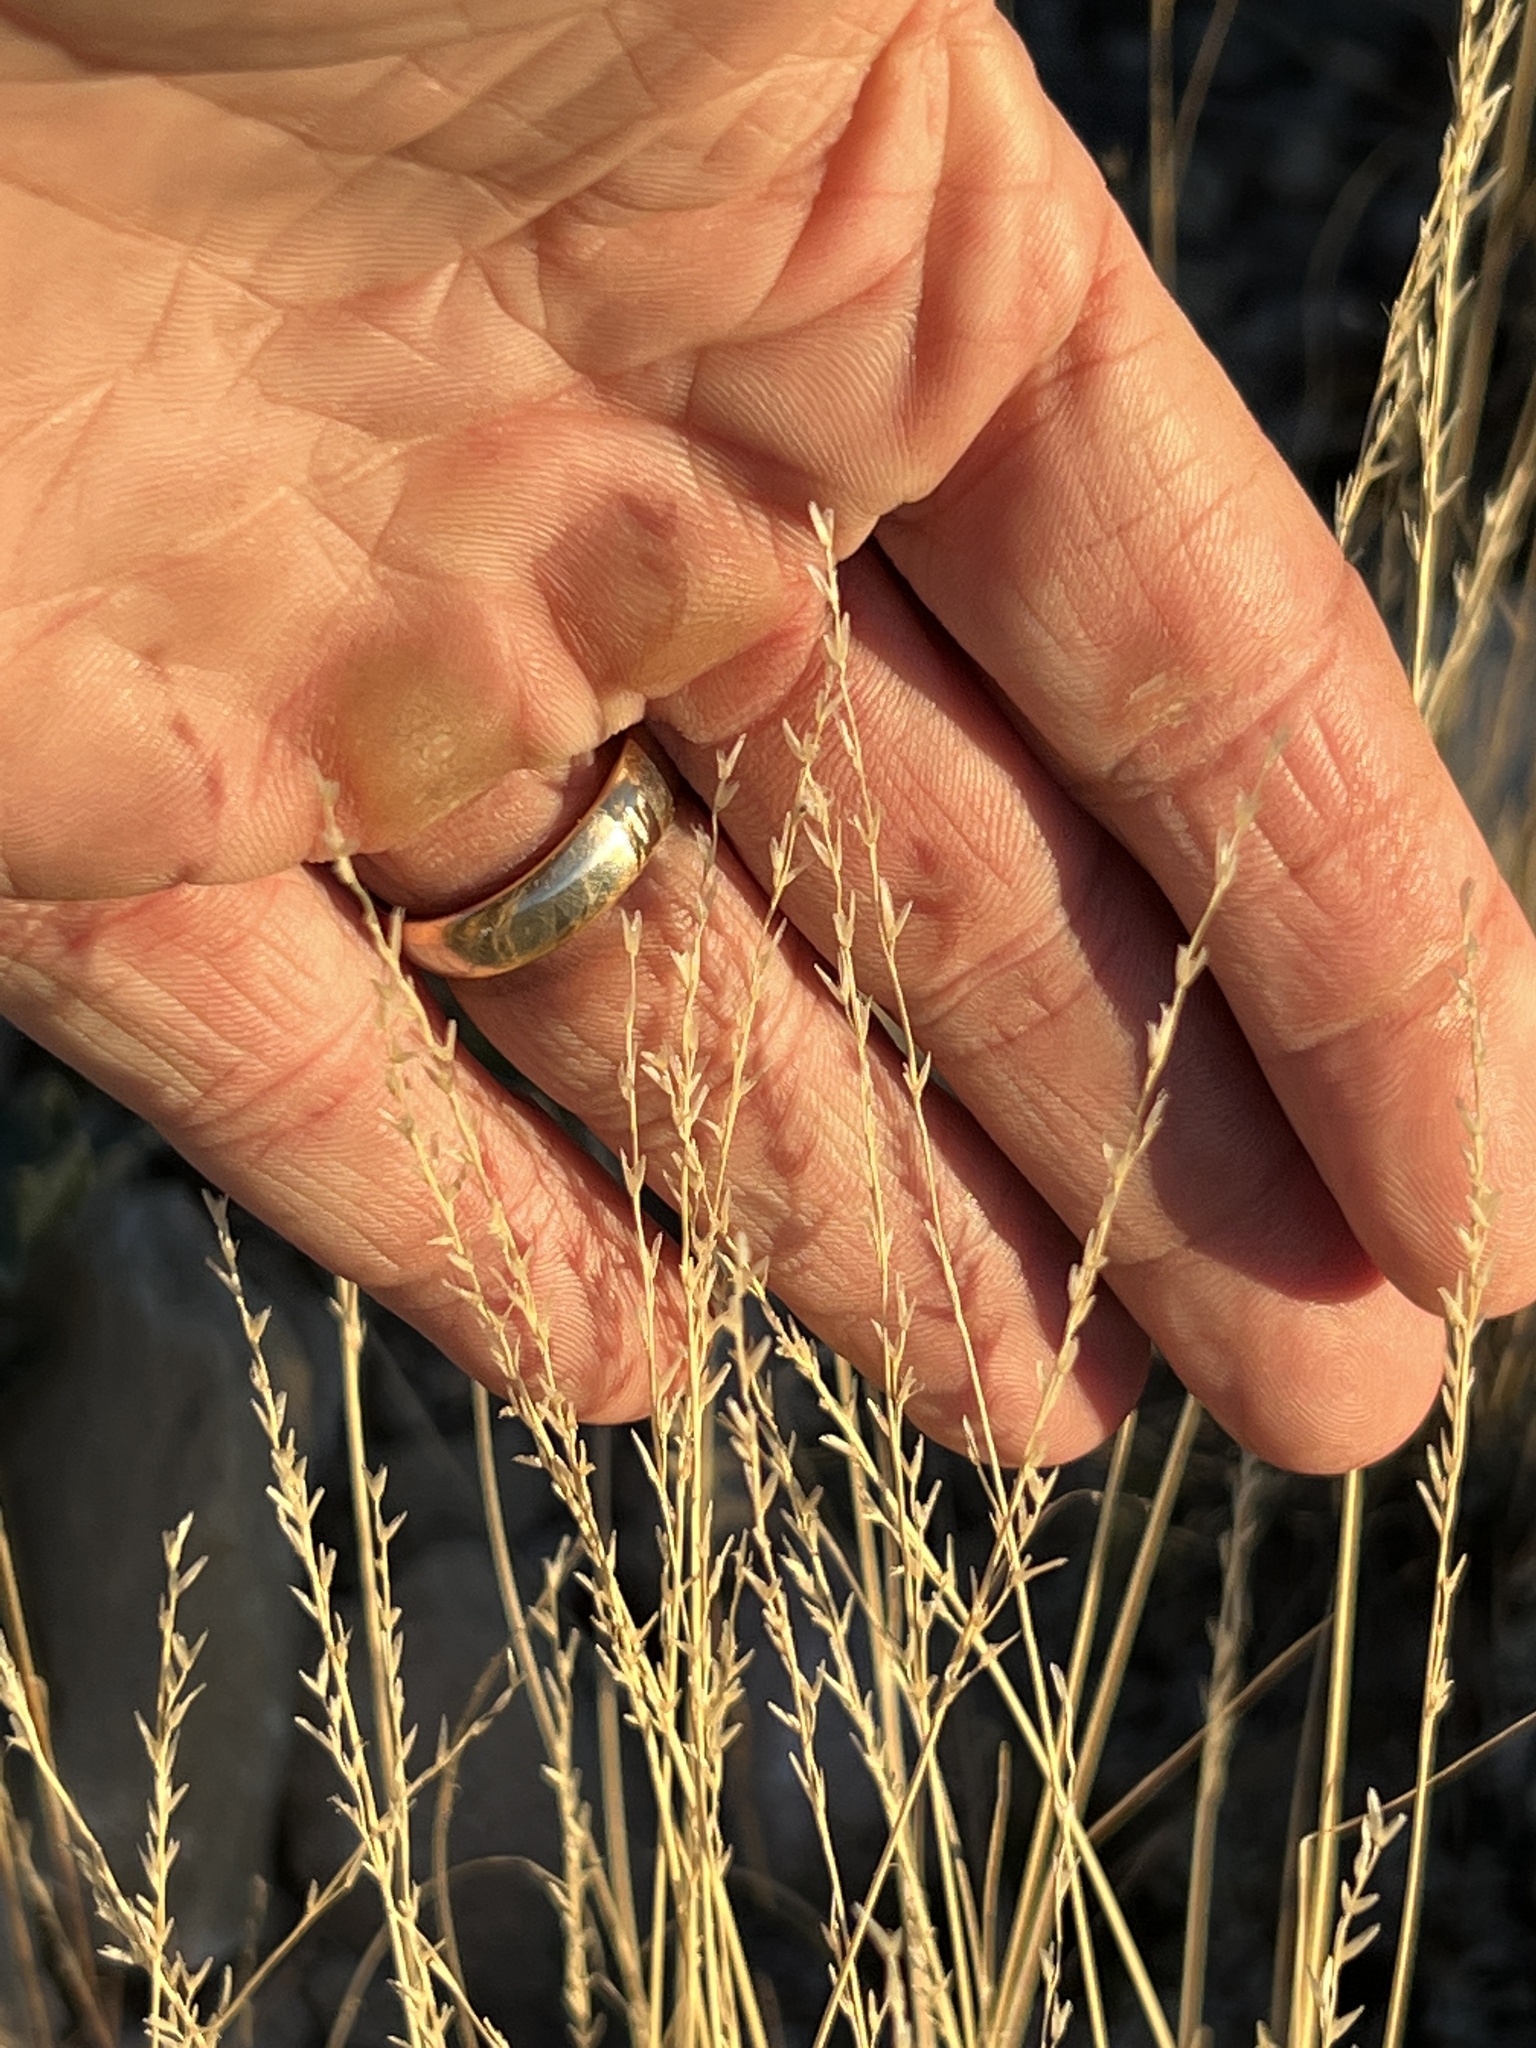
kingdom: Plantae
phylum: Tracheophyta
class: Liliopsida
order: Poales
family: Poaceae
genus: Tridentopsis
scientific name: Tridentopsis mutica
